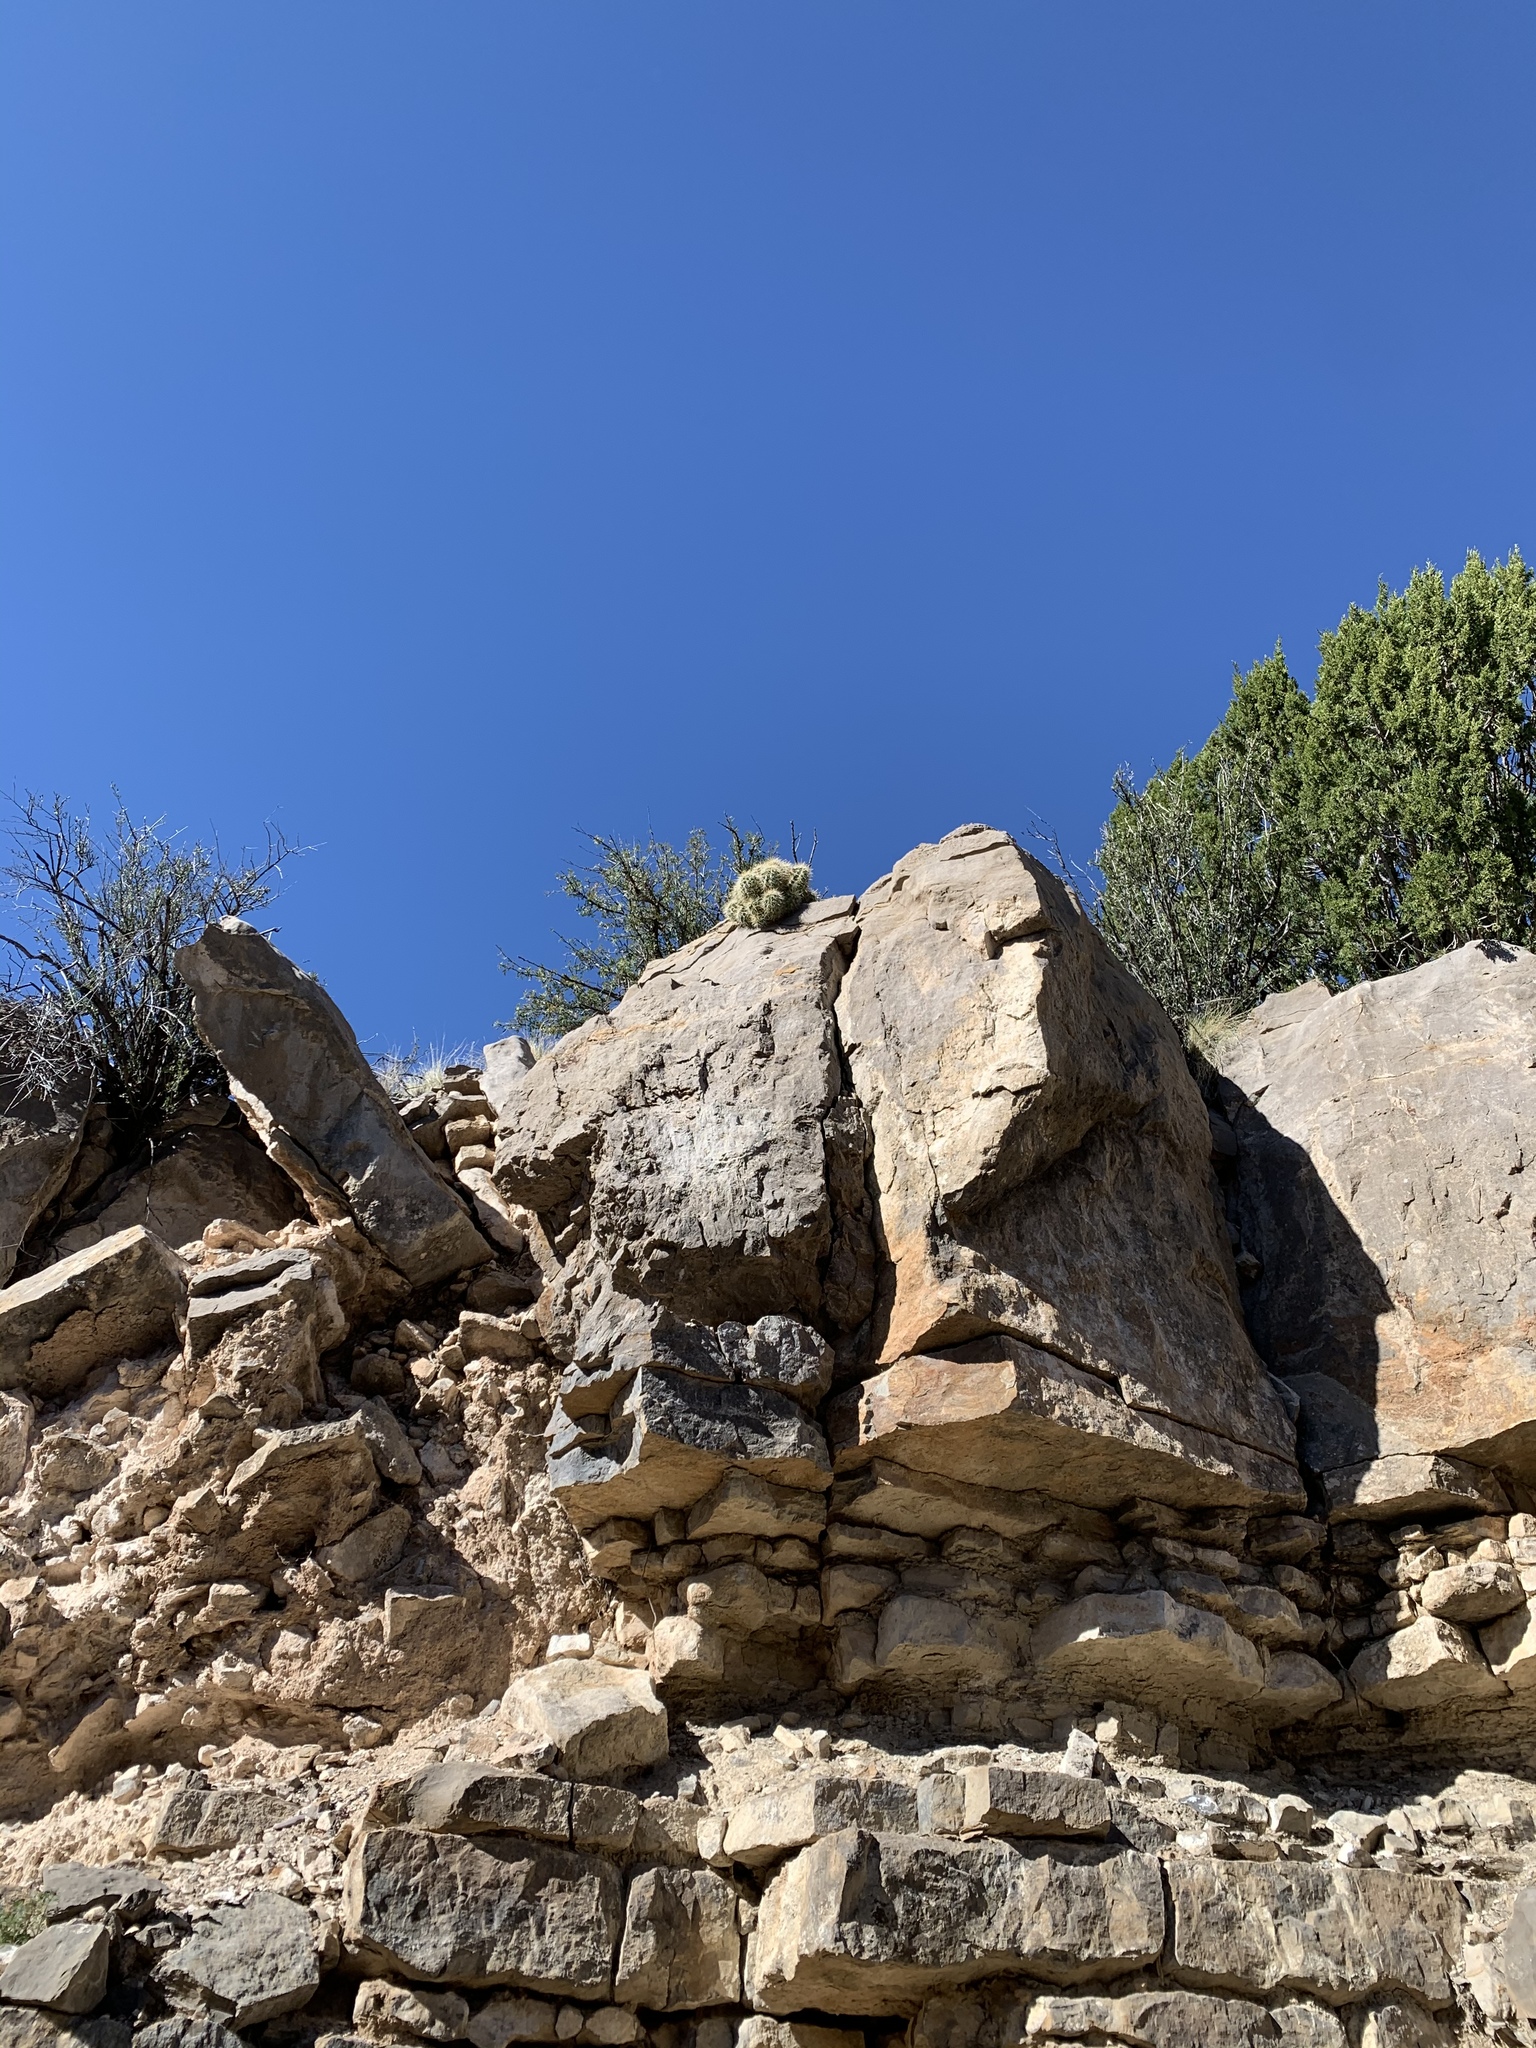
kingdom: Plantae
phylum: Tracheophyta
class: Magnoliopsida
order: Caryophyllales
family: Cactaceae
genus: Echinocereus
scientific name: Echinocereus coccineus
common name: Scarlet hedgehog cactus
